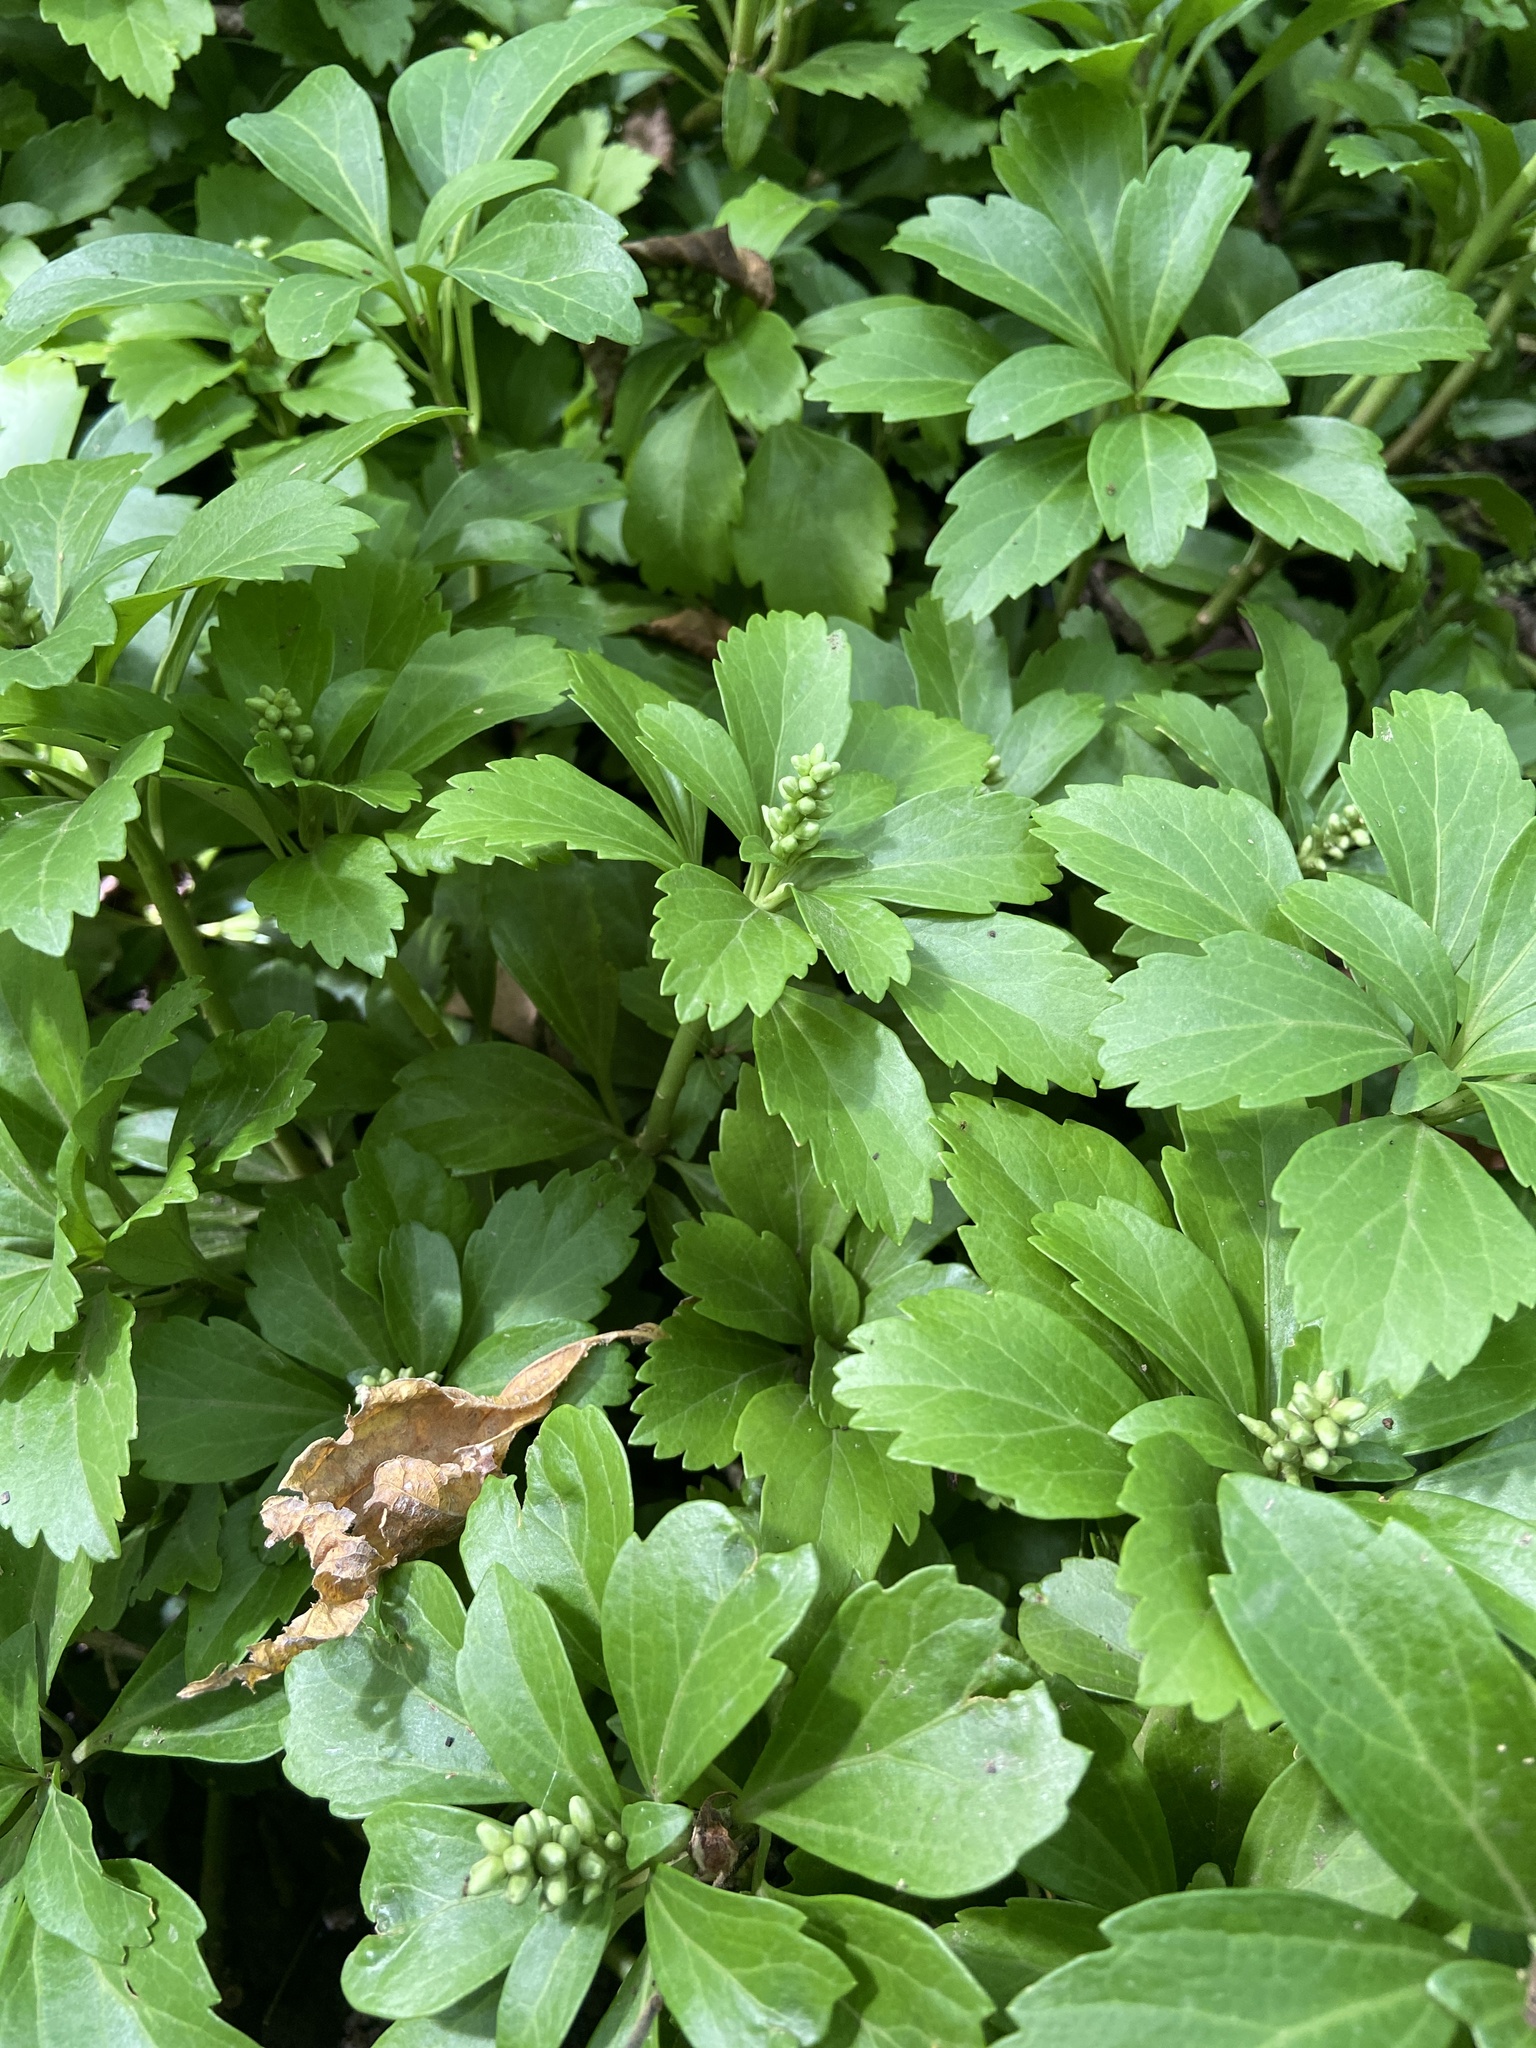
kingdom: Plantae
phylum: Tracheophyta
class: Magnoliopsida
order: Buxales
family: Buxaceae
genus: Pachysandra
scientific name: Pachysandra terminalis
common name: Japanese pachysandra
